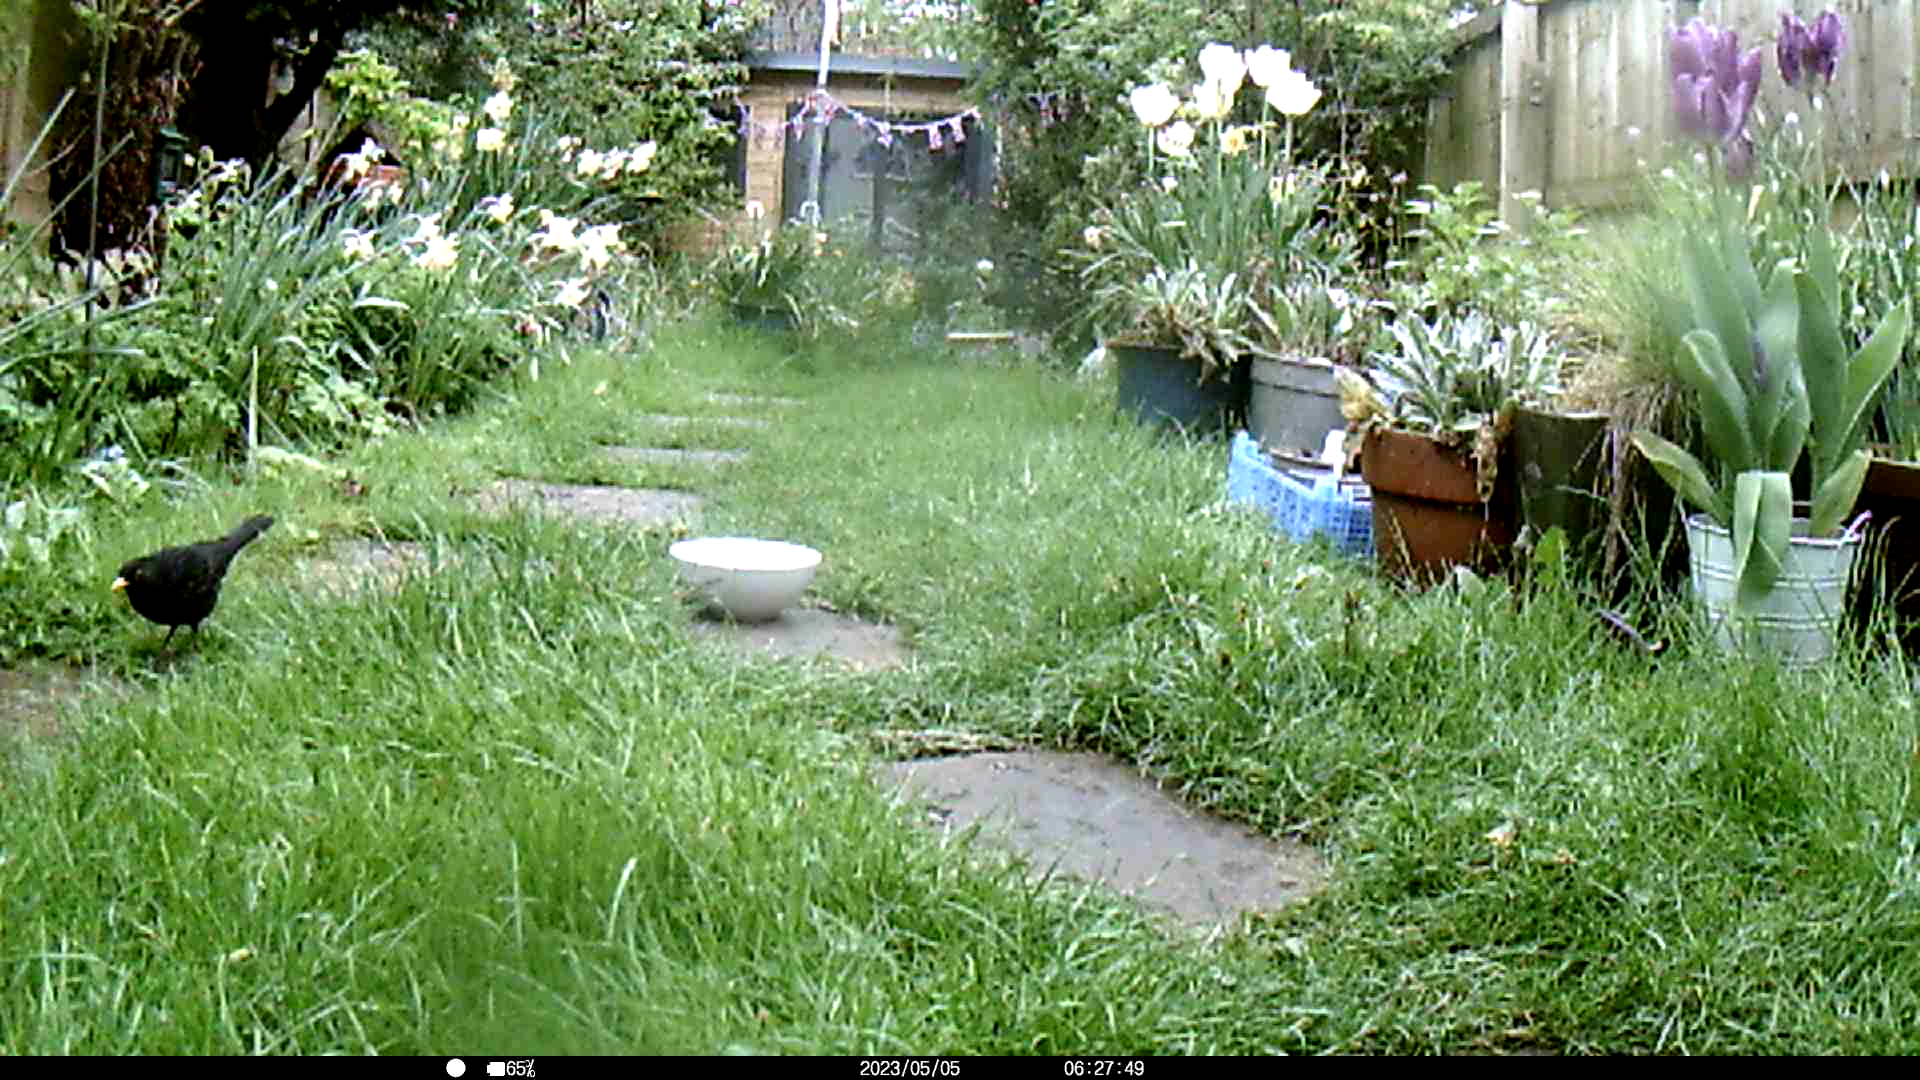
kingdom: Animalia
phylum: Chordata
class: Aves
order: Passeriformes
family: Turdidae
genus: Turdus
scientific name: Turdus merula
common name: Common blackbird
